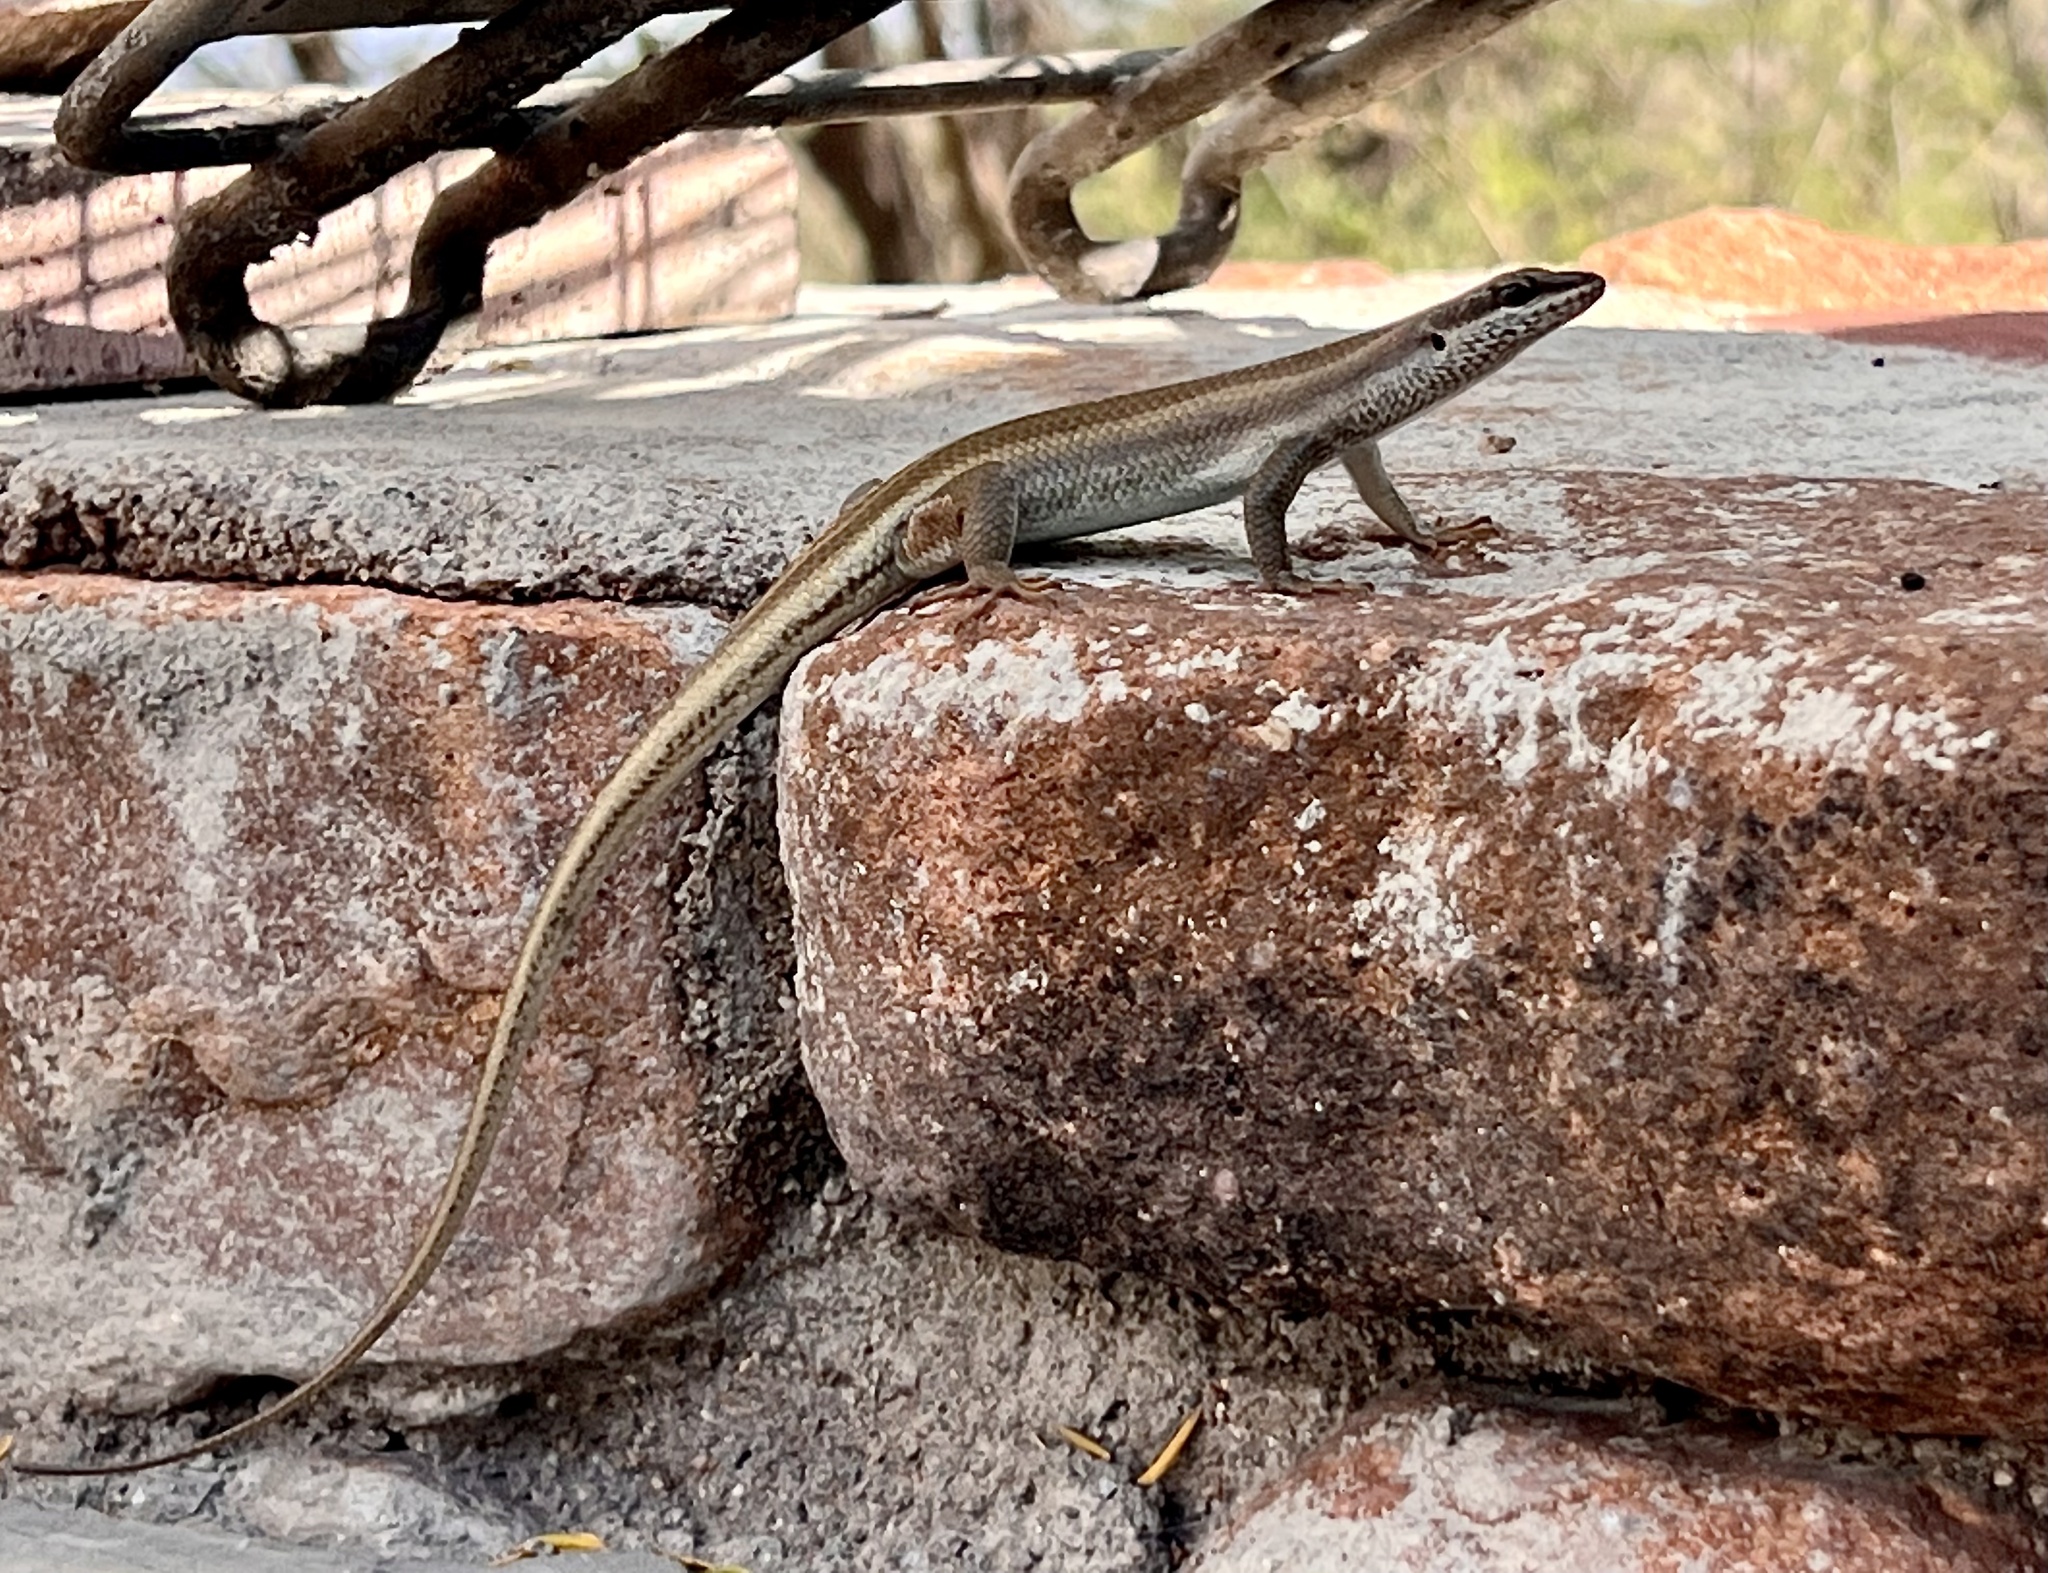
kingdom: Animalia
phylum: Chordata
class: Squamata
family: Scincidae
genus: Trachylepis
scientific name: Trachylepis sulcata
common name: Western rock skink
